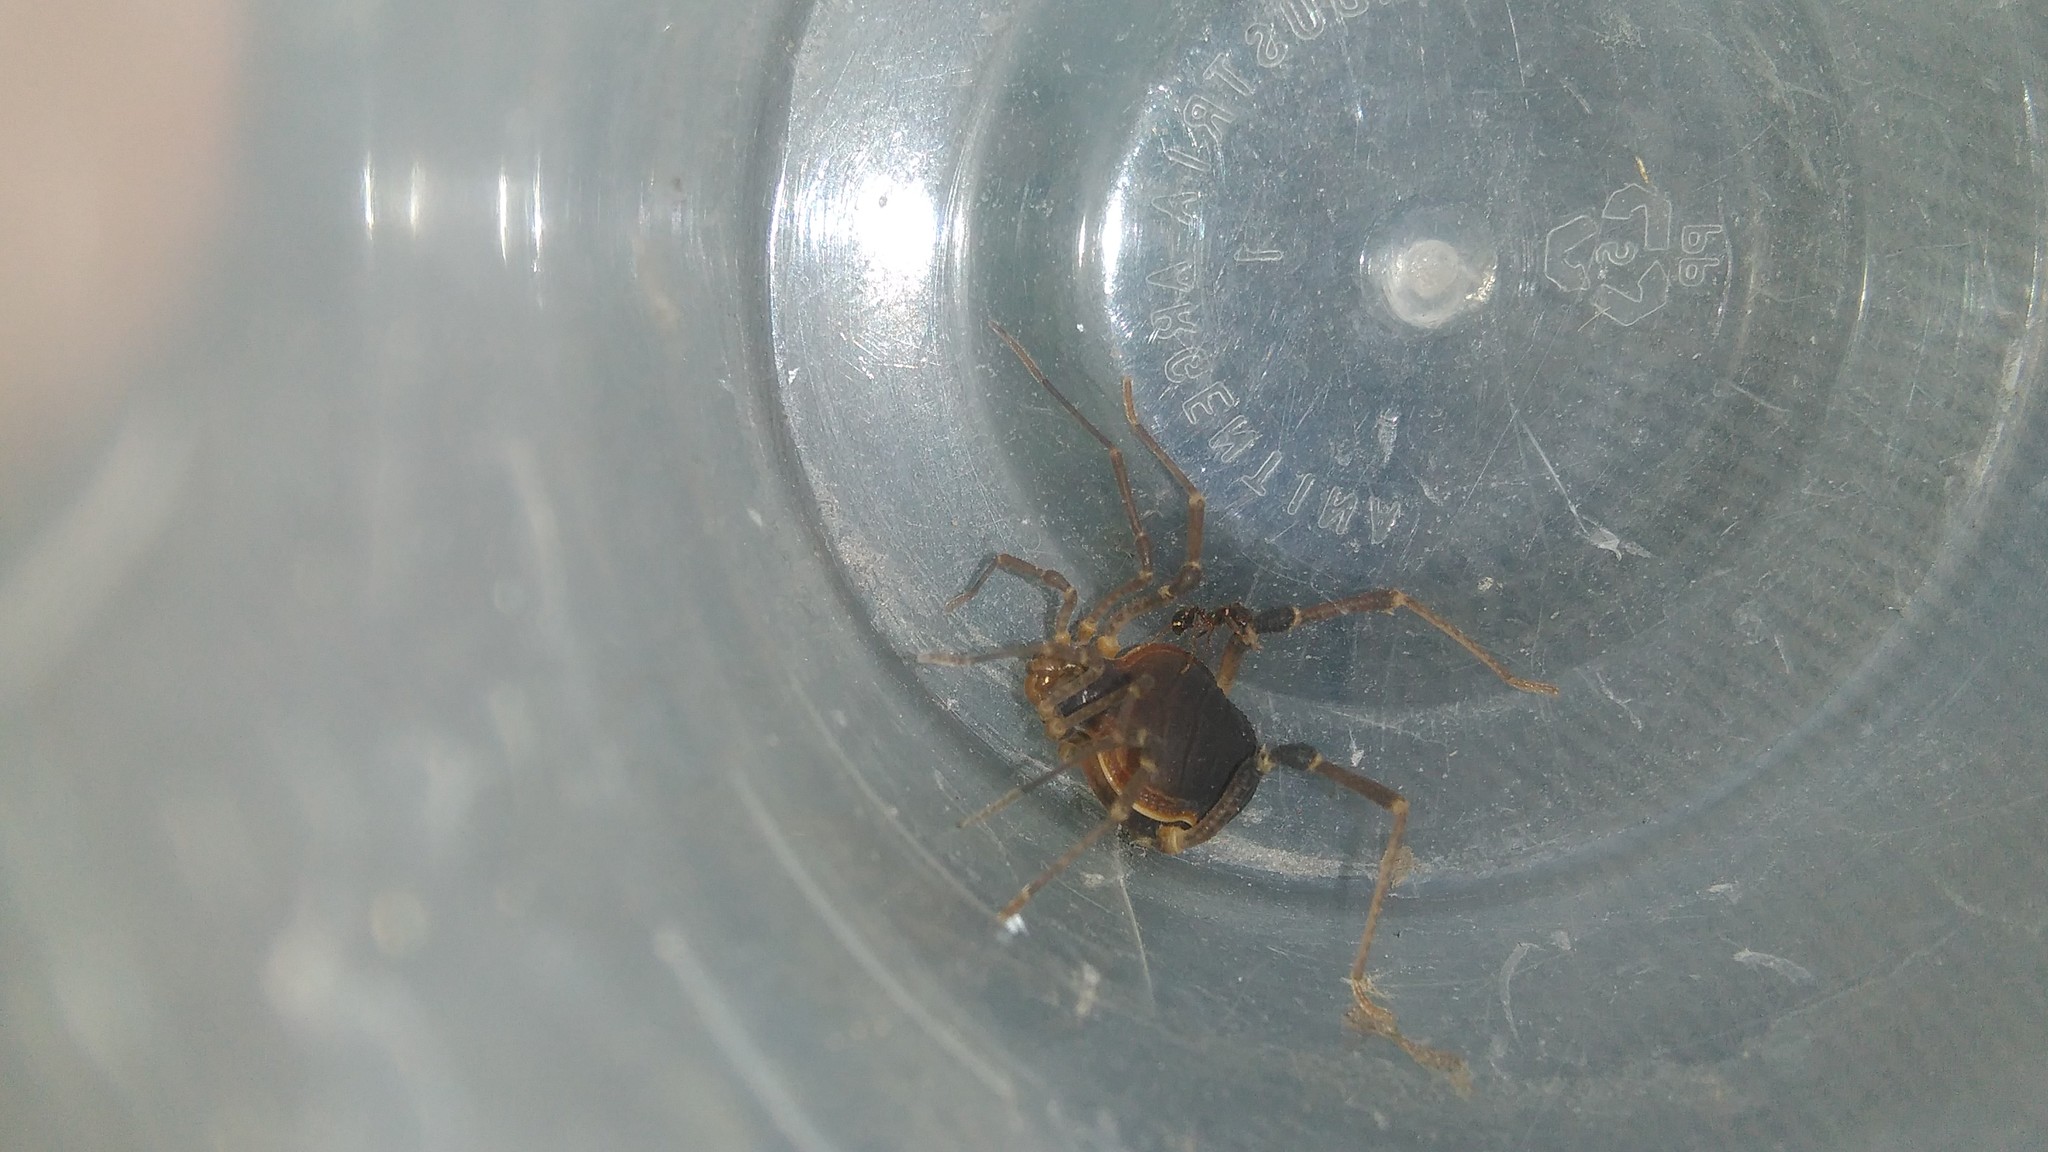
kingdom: Animalia
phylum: Arthropoda
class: Arachnida
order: Opiliones
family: Gonyleptidae
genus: Acanthopachylus
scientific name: Acanthopachylus robustus
